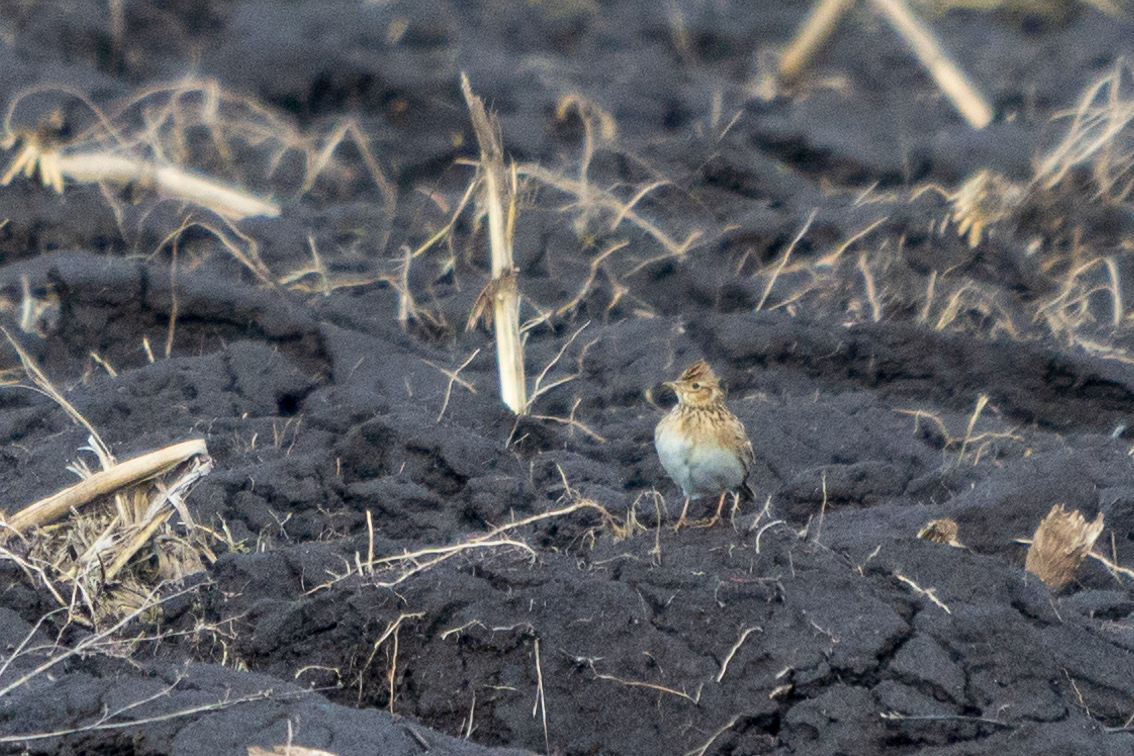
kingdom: Animalia
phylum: Chordata
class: Aves
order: Passeriformes
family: Alaudidae
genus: Alauda
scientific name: Alauda arvensis
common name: Eurasian skylark
